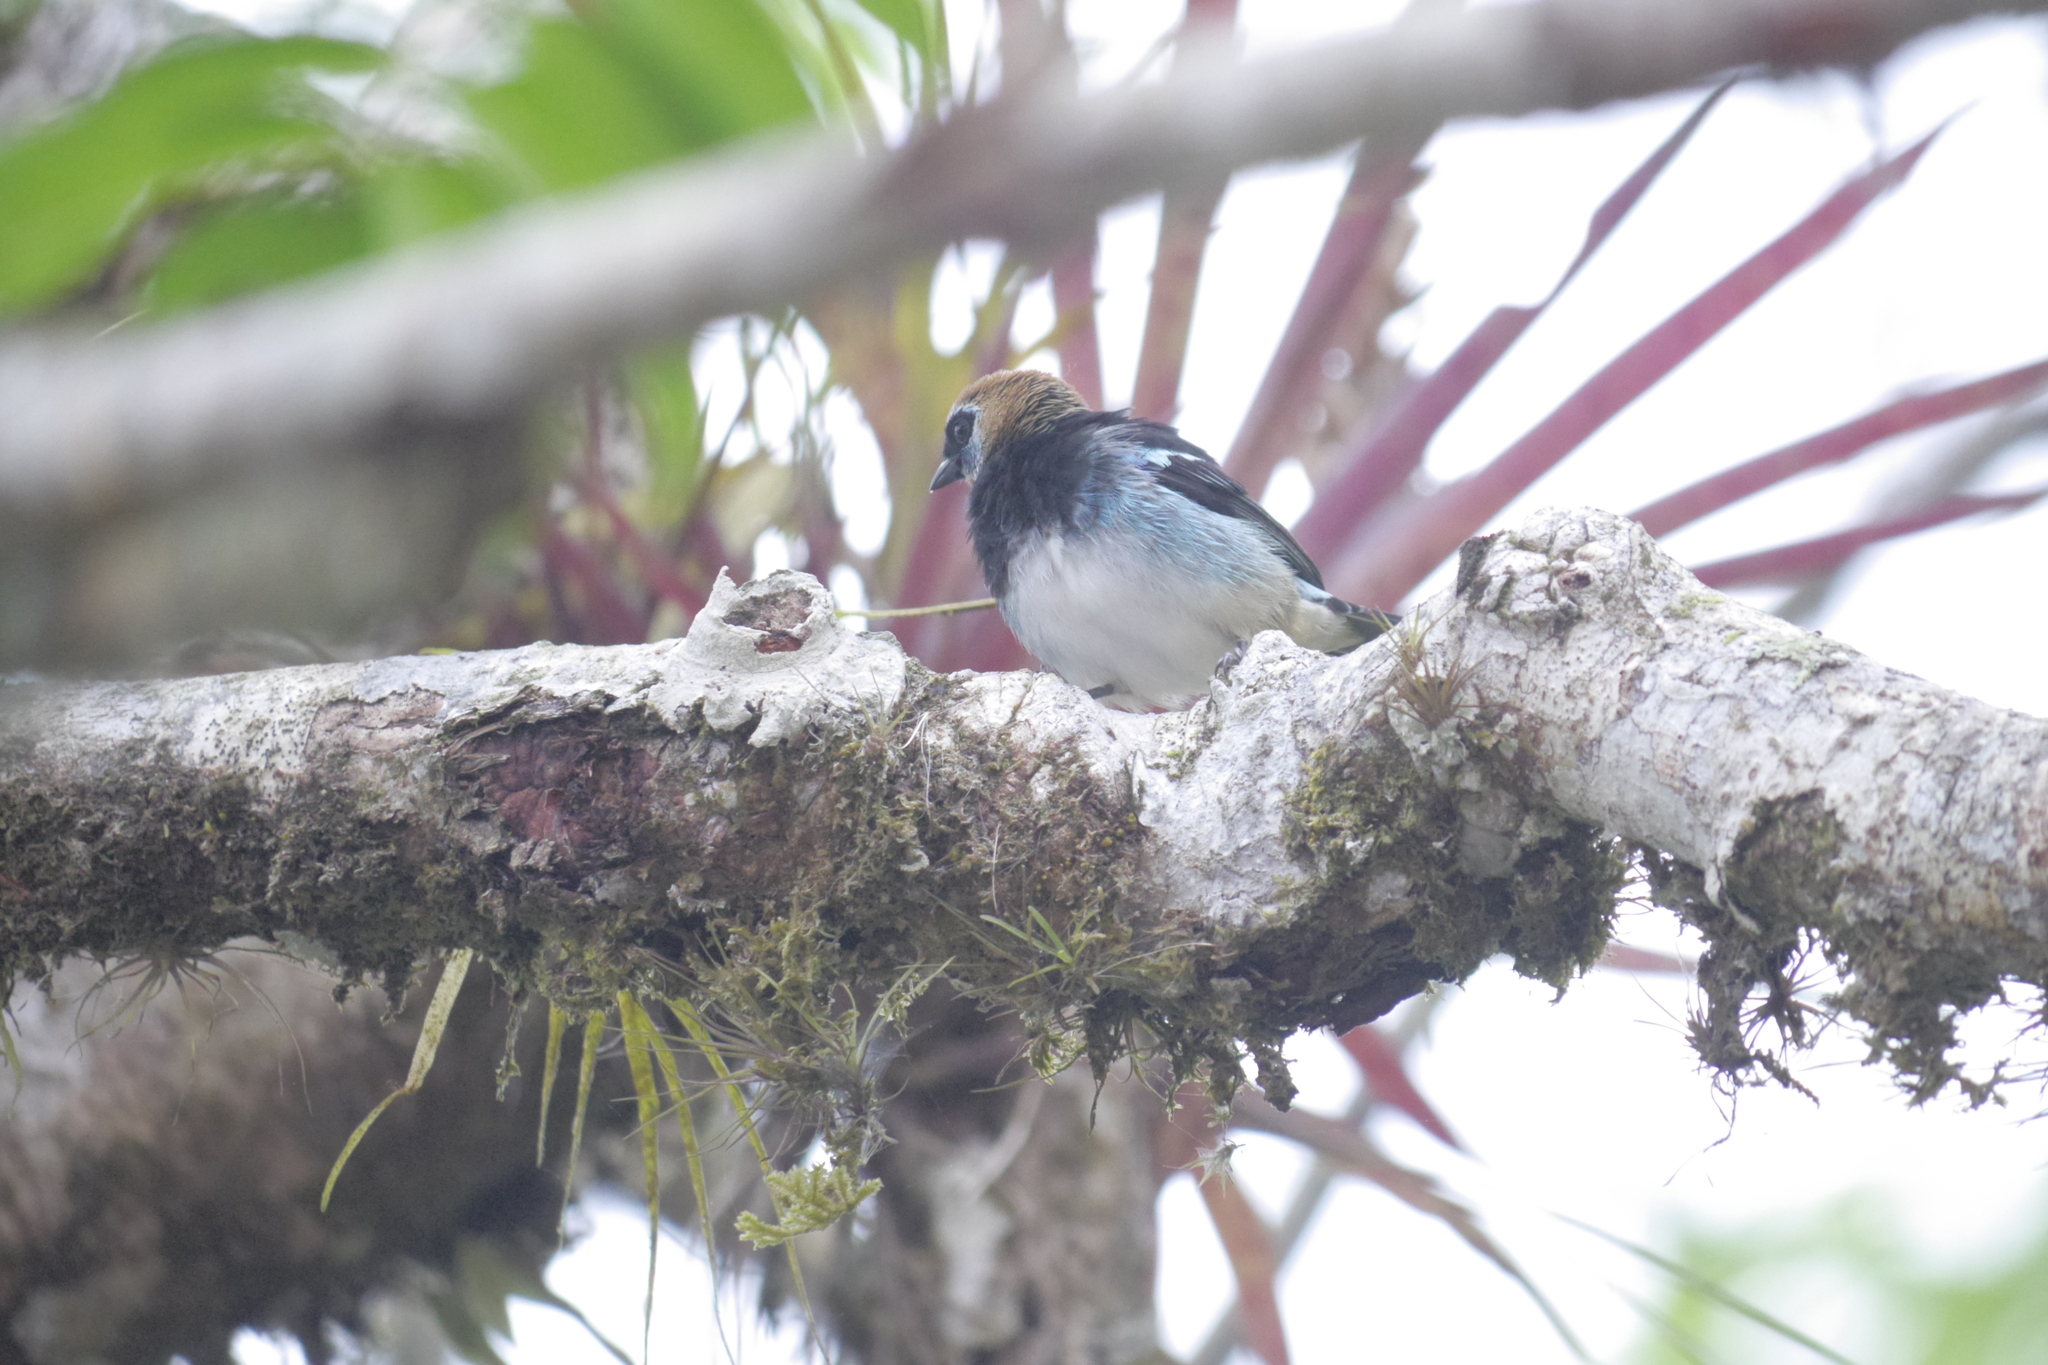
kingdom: Animalia
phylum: Chordata
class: Aves
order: Passeriformes
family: Thraupidae
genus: Stilpnia
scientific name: Stilpnia larvata
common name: Golden-hooded tanager
